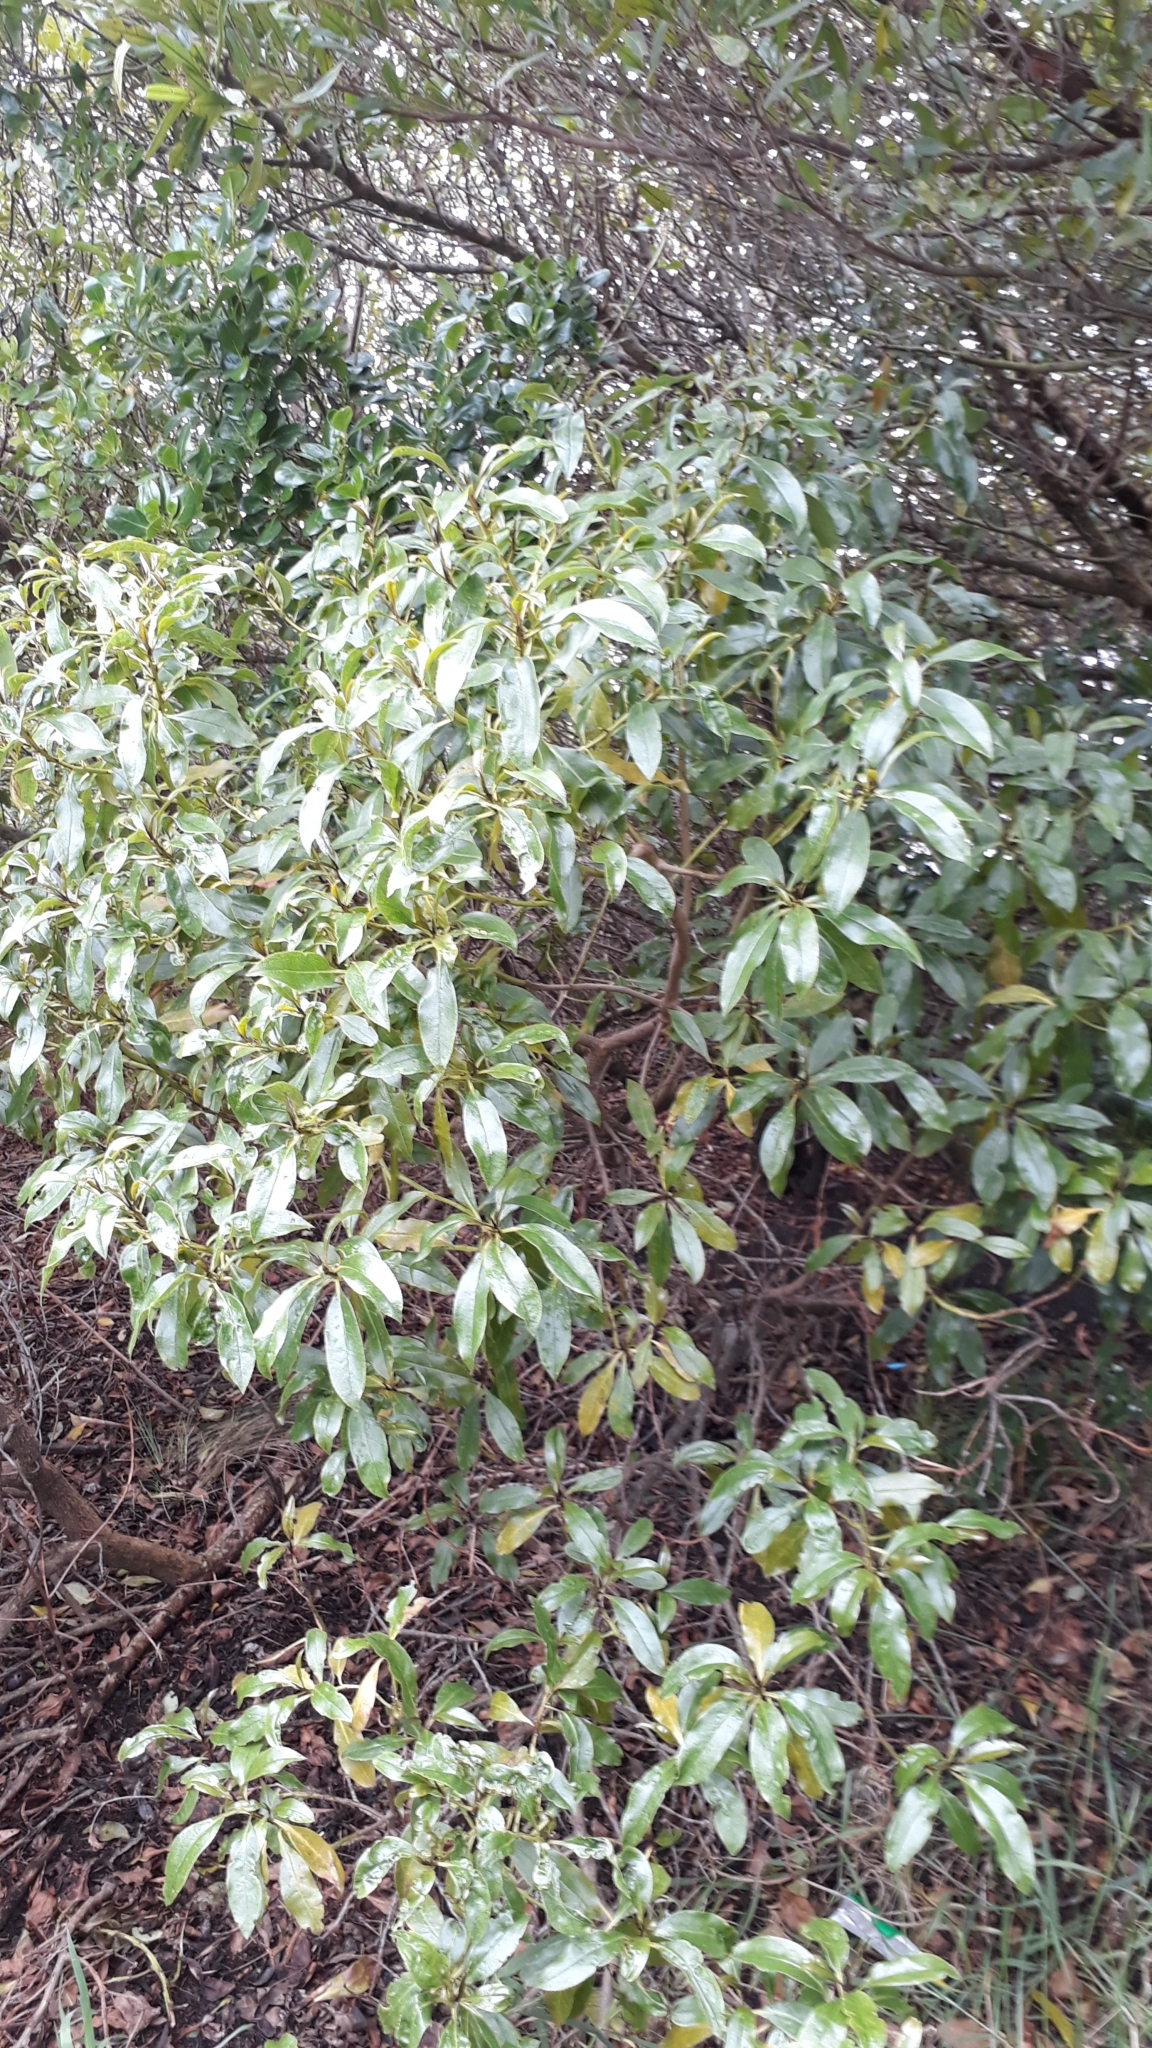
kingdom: Plantae
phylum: Tracheophyta
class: Magnoliopsida
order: Lamiales
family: Scrophulariaceae
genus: Myoporum
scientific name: Myoporum laetum
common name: Ngaio tree
